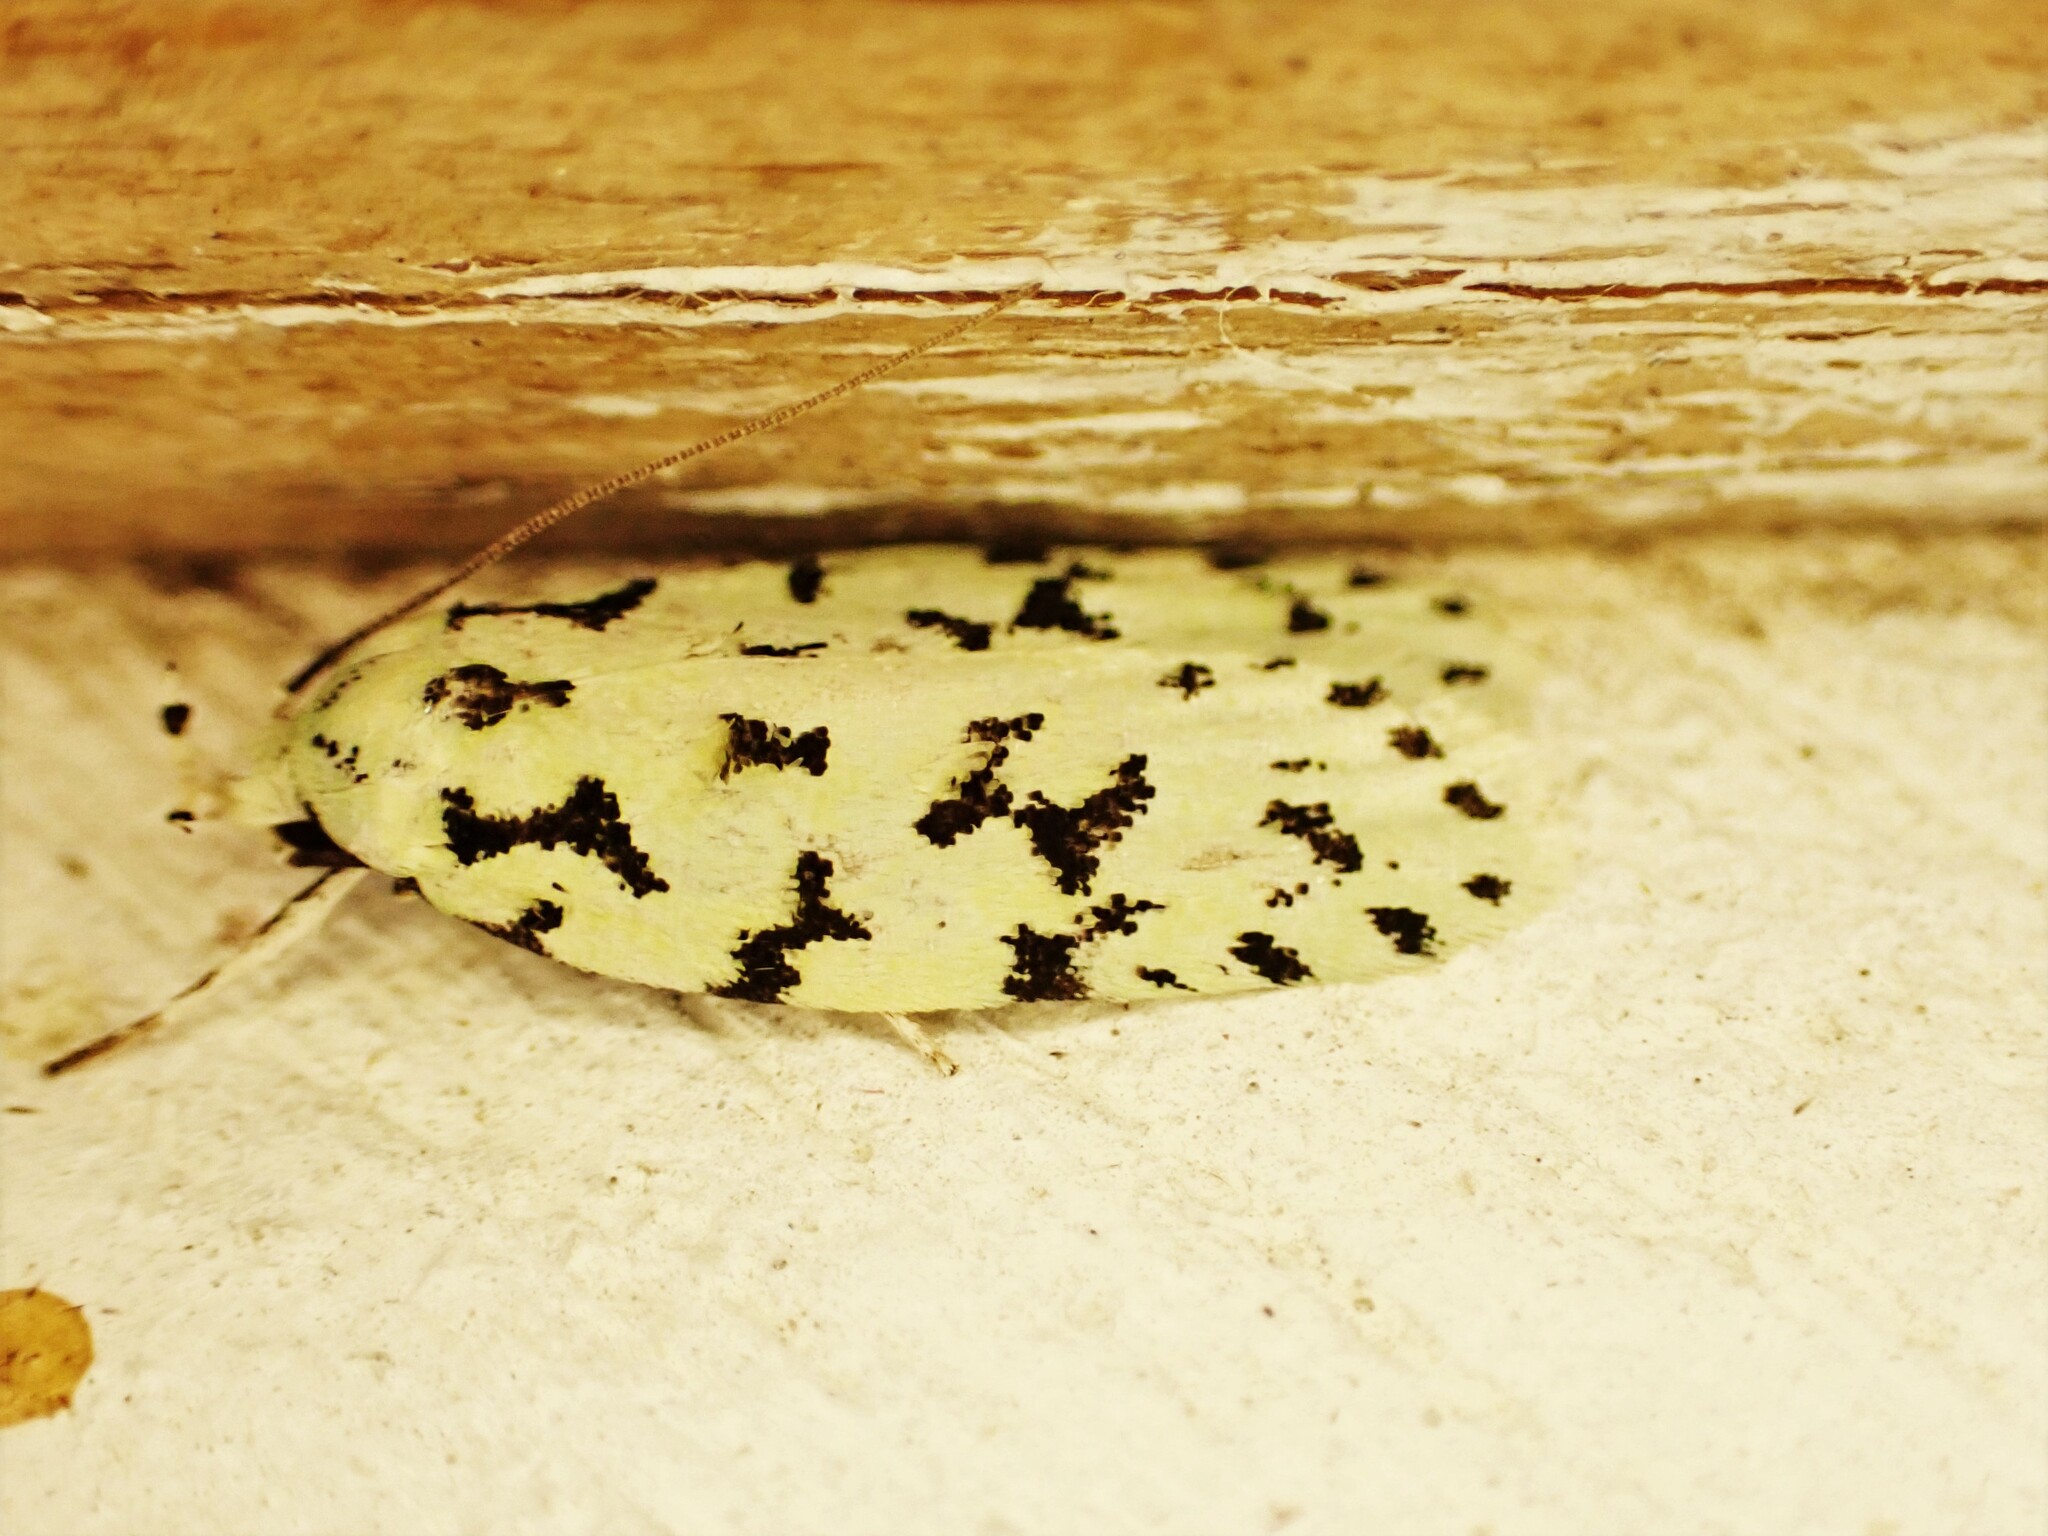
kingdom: Animalia
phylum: Arthropoda
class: Insecta
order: Lepidoptera
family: Oecophoridae
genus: Izatha
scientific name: Izatha huttoni
